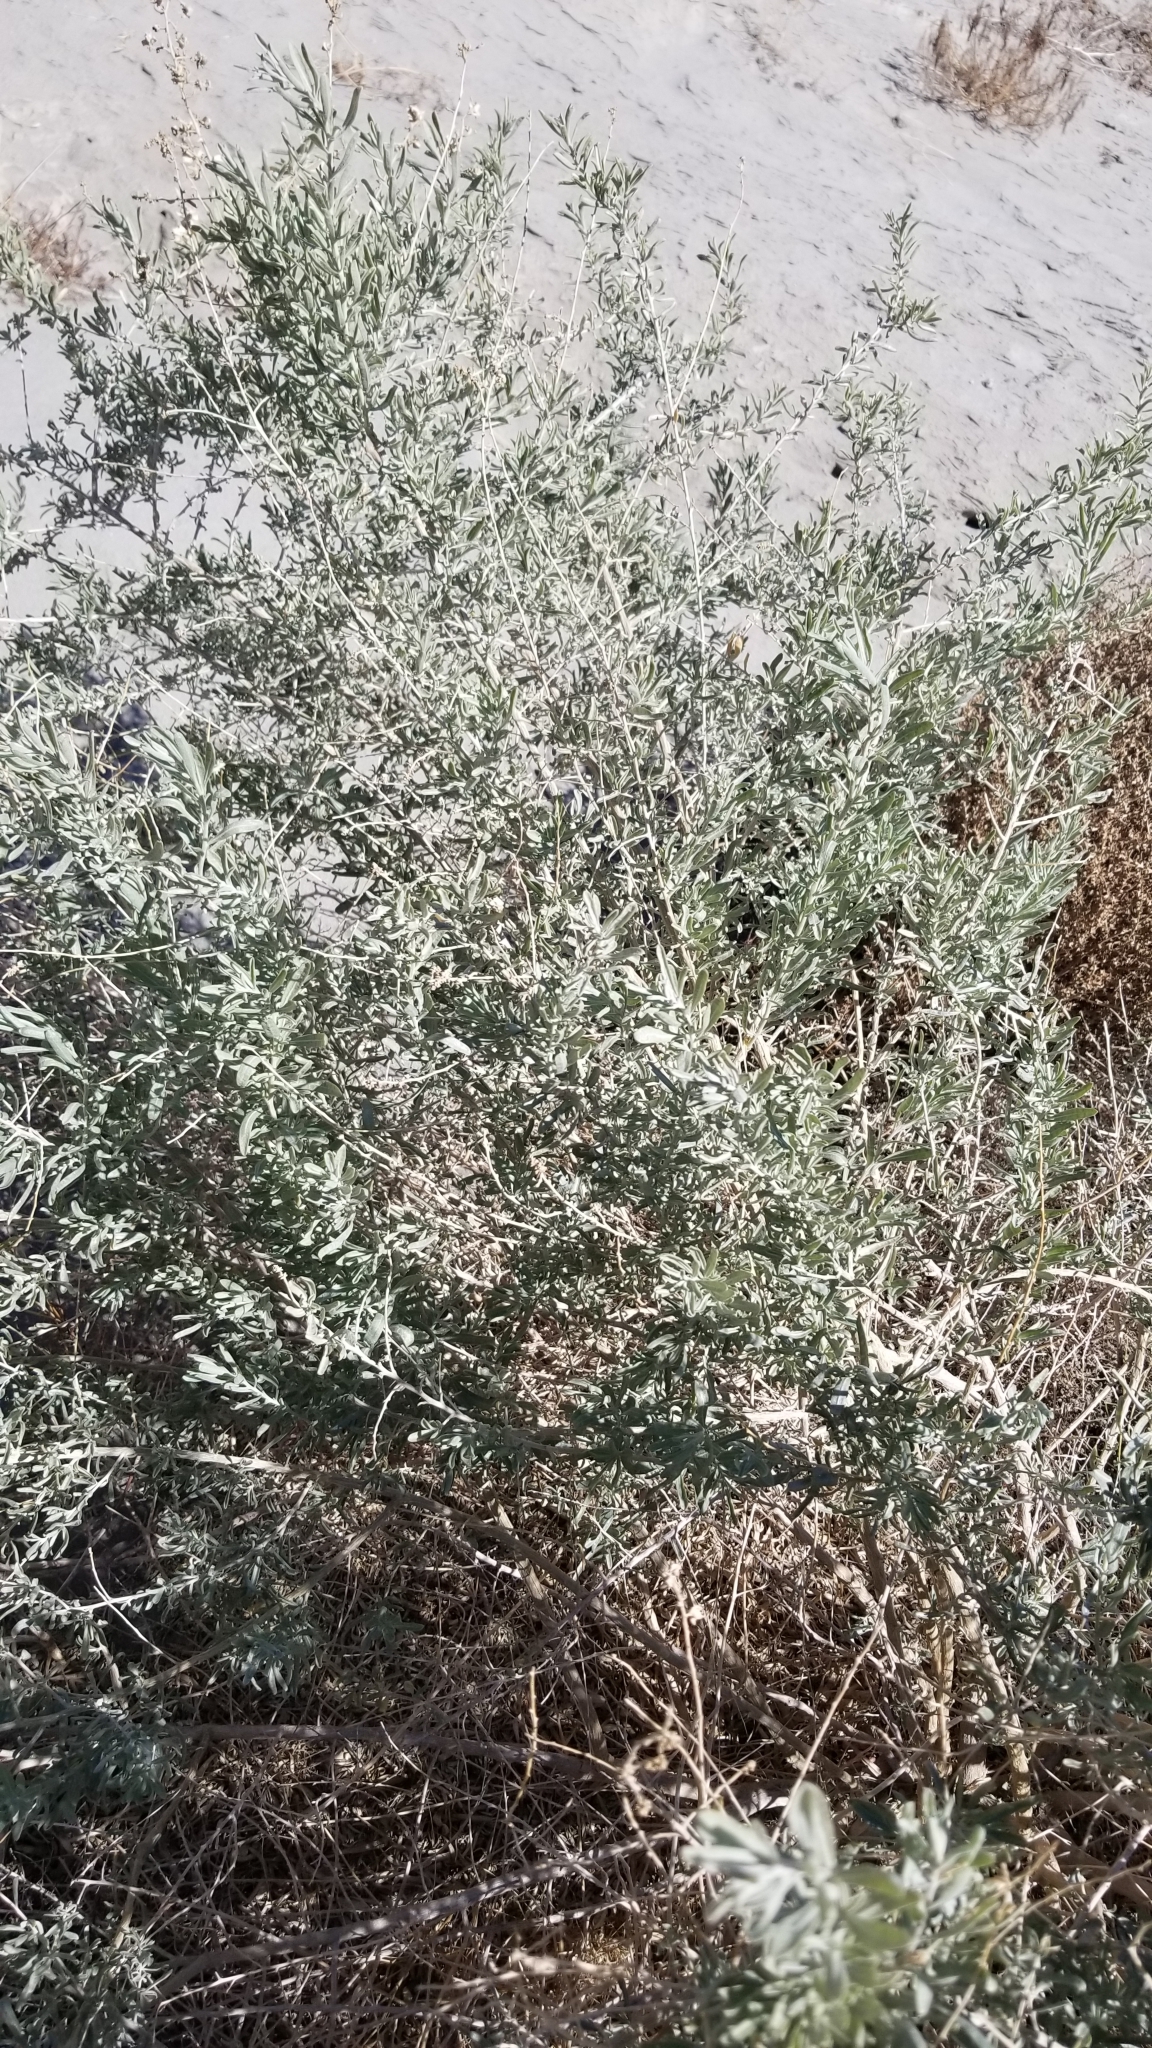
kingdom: Plantae
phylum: Tracheophyta
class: Magnoliopsida
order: Caryophyllales
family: Amaranthaceae
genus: Atriplex
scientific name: Atriplex canescens
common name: Four-wing saltbush
